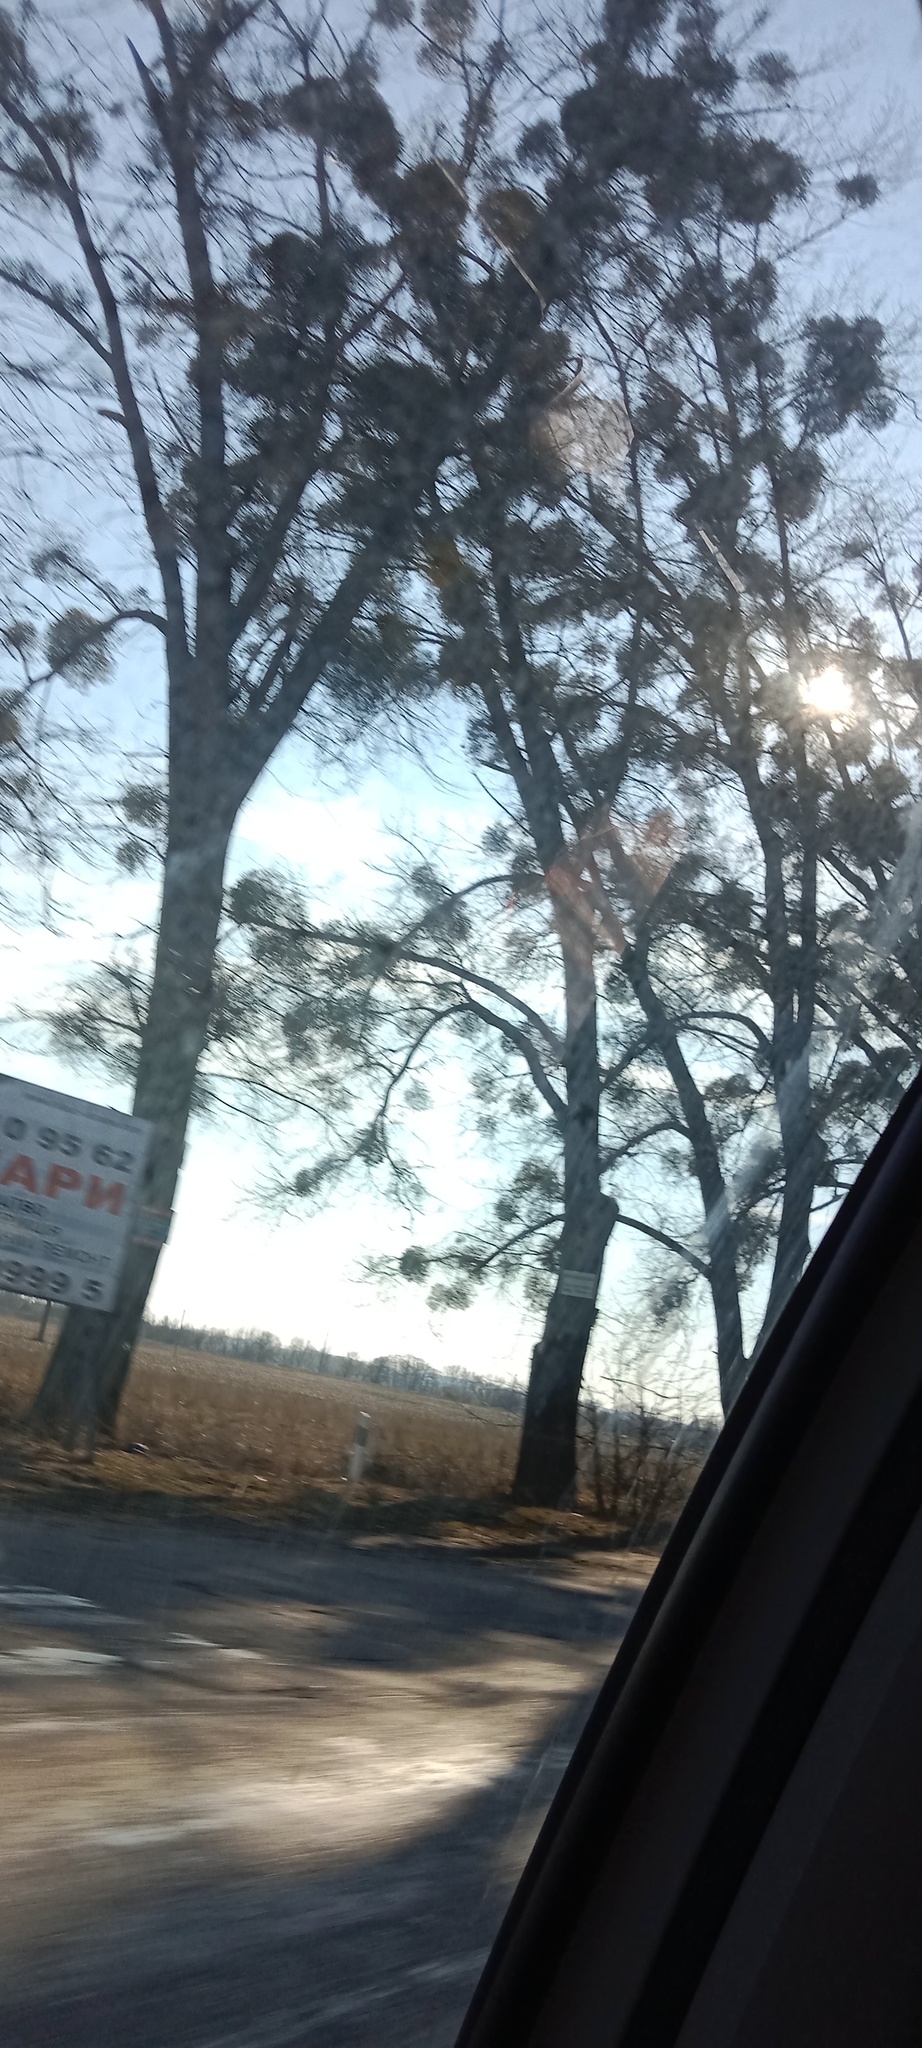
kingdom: Plantae
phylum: Tracheophyta
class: Magnoliopsida
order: Santalales
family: Viscaceae
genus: Viscum
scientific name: Viscum album
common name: Mistletoe
